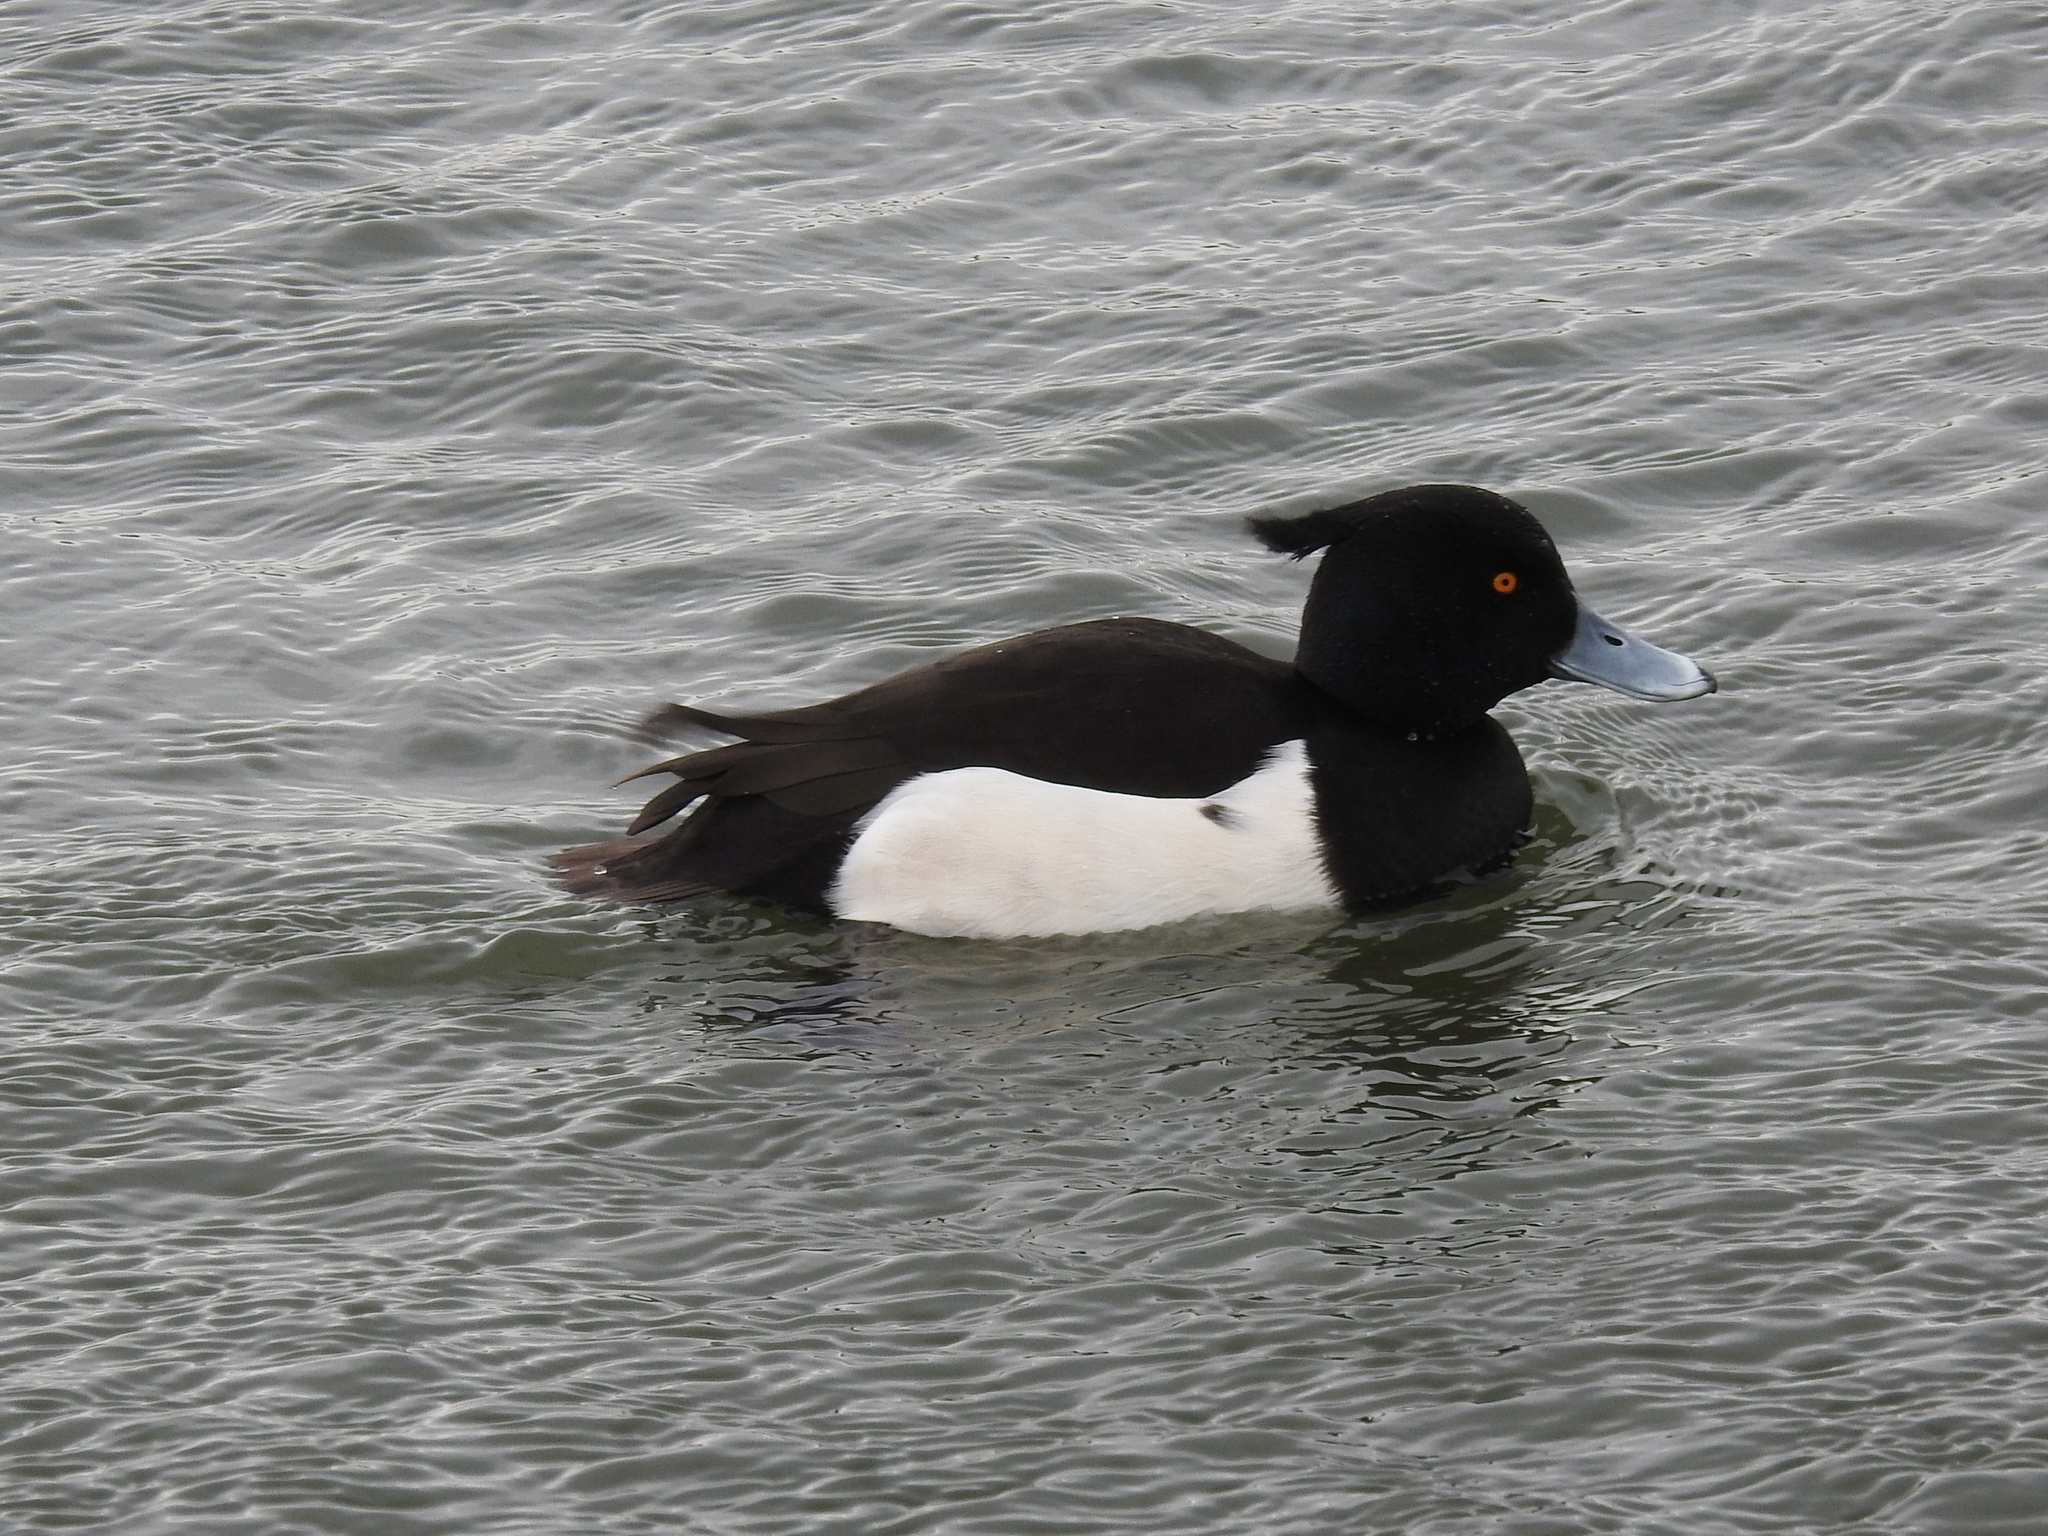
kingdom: Animalia
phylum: Chordata
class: Aves
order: Anseriformes
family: Anatidae
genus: Aythya
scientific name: Aythya fuligula
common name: Tufted duck
